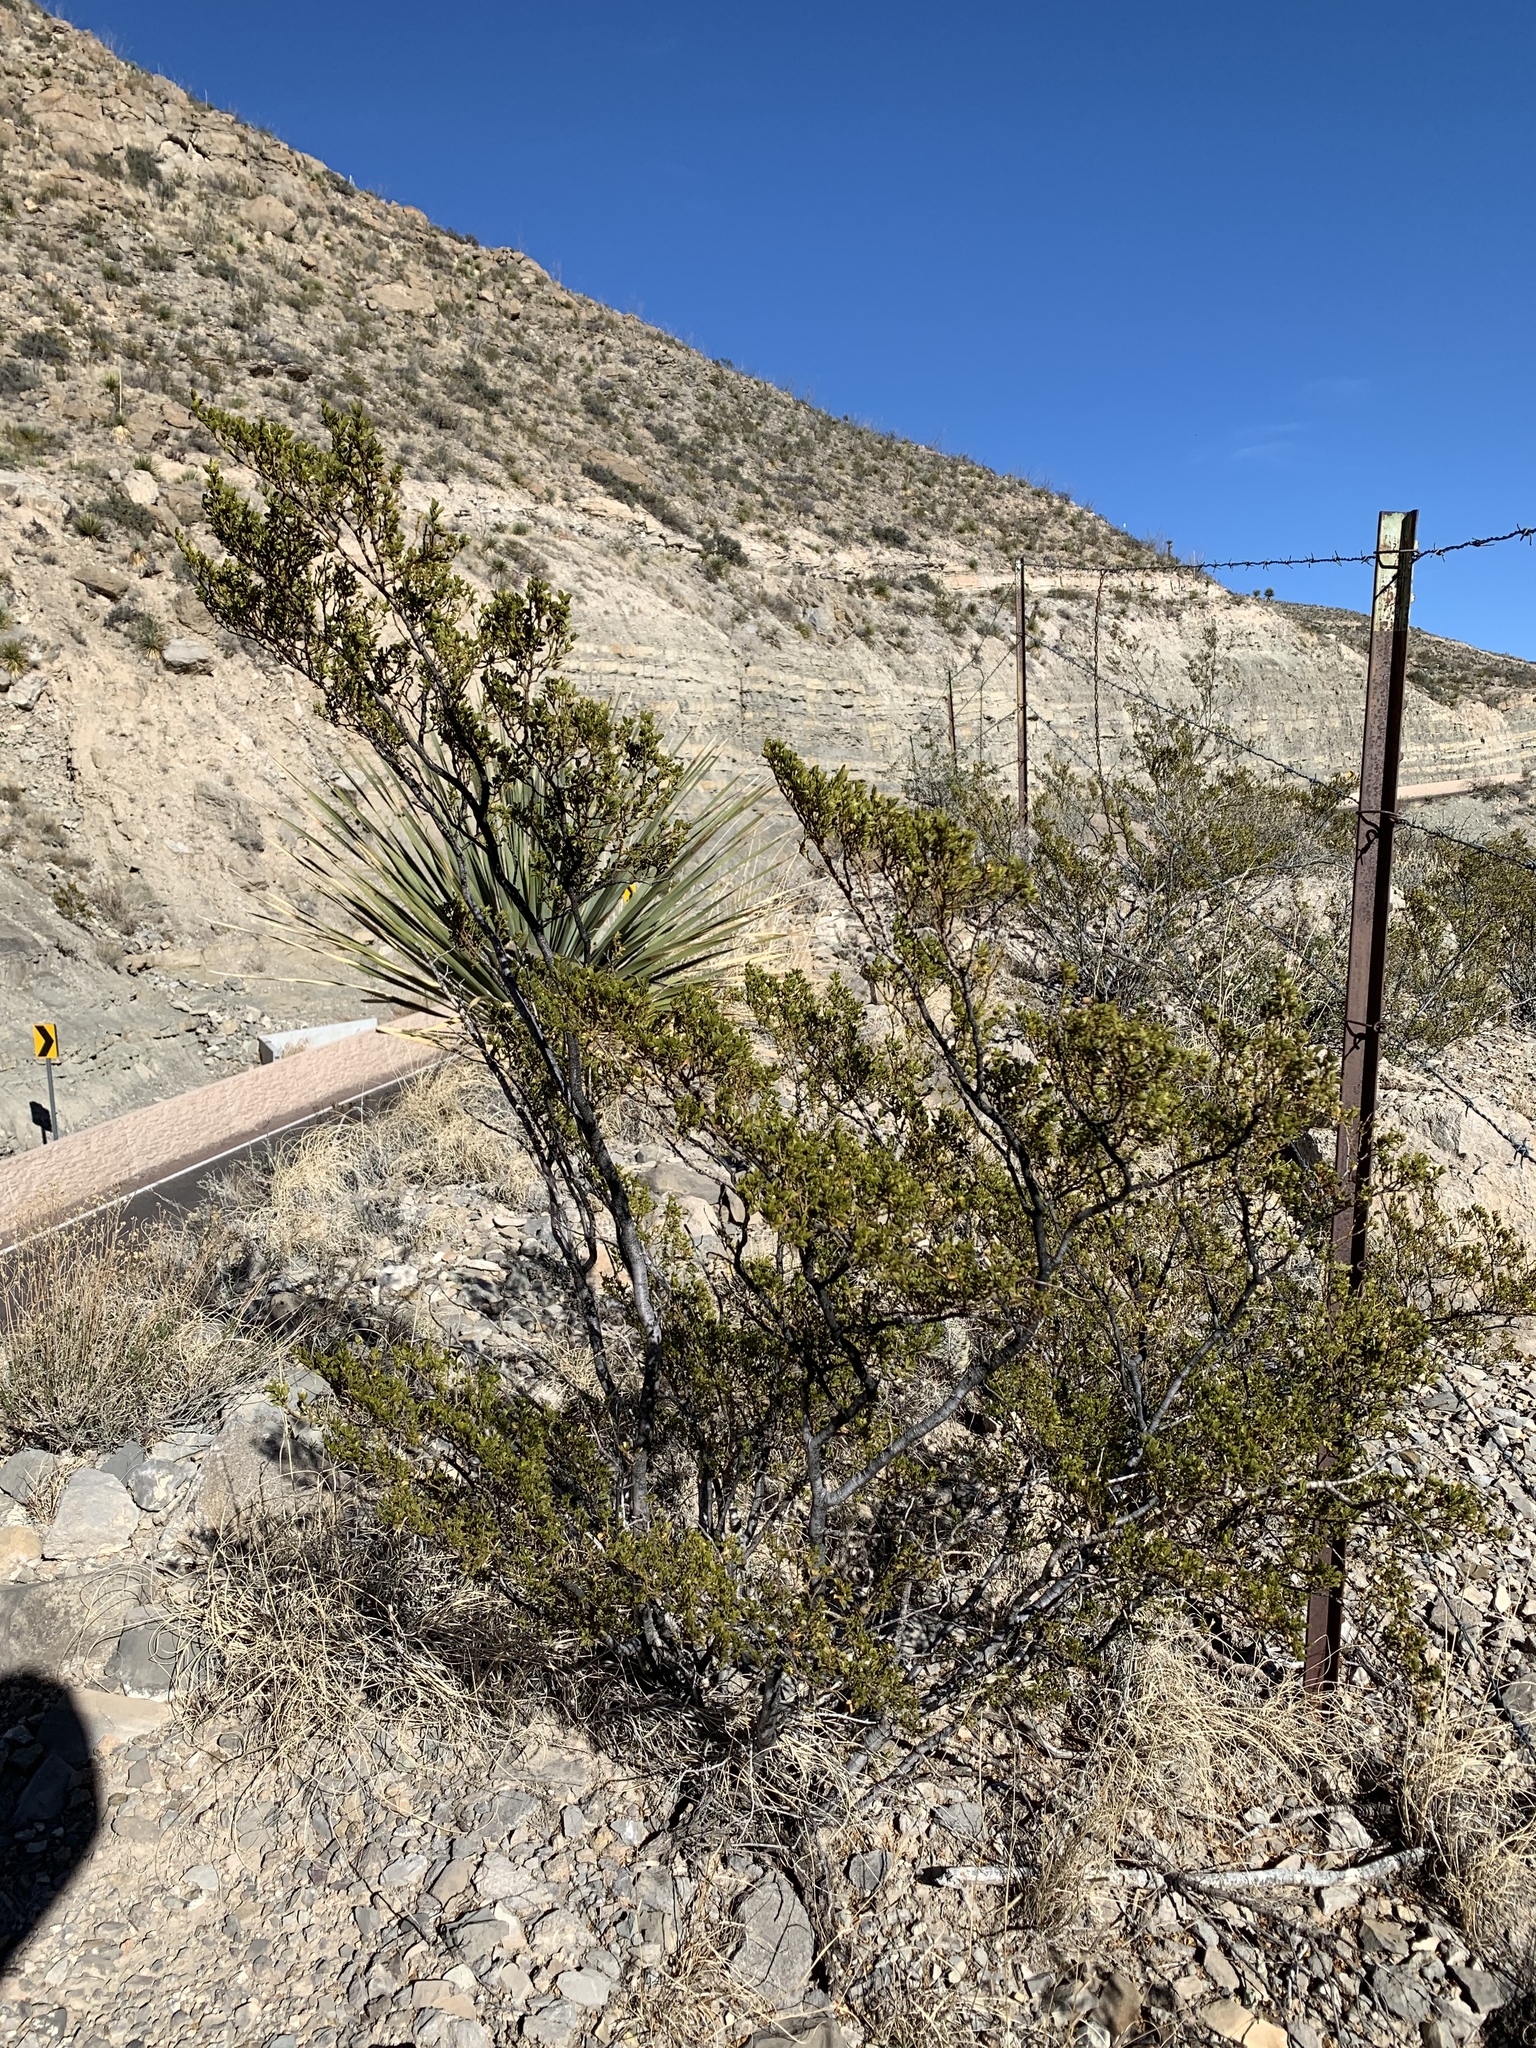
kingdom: Plantae
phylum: Tracheophyta
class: Magnoliopsida
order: Zygophyllales
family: Zygophyllaceae
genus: Larrea
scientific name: Larrea tridentata
